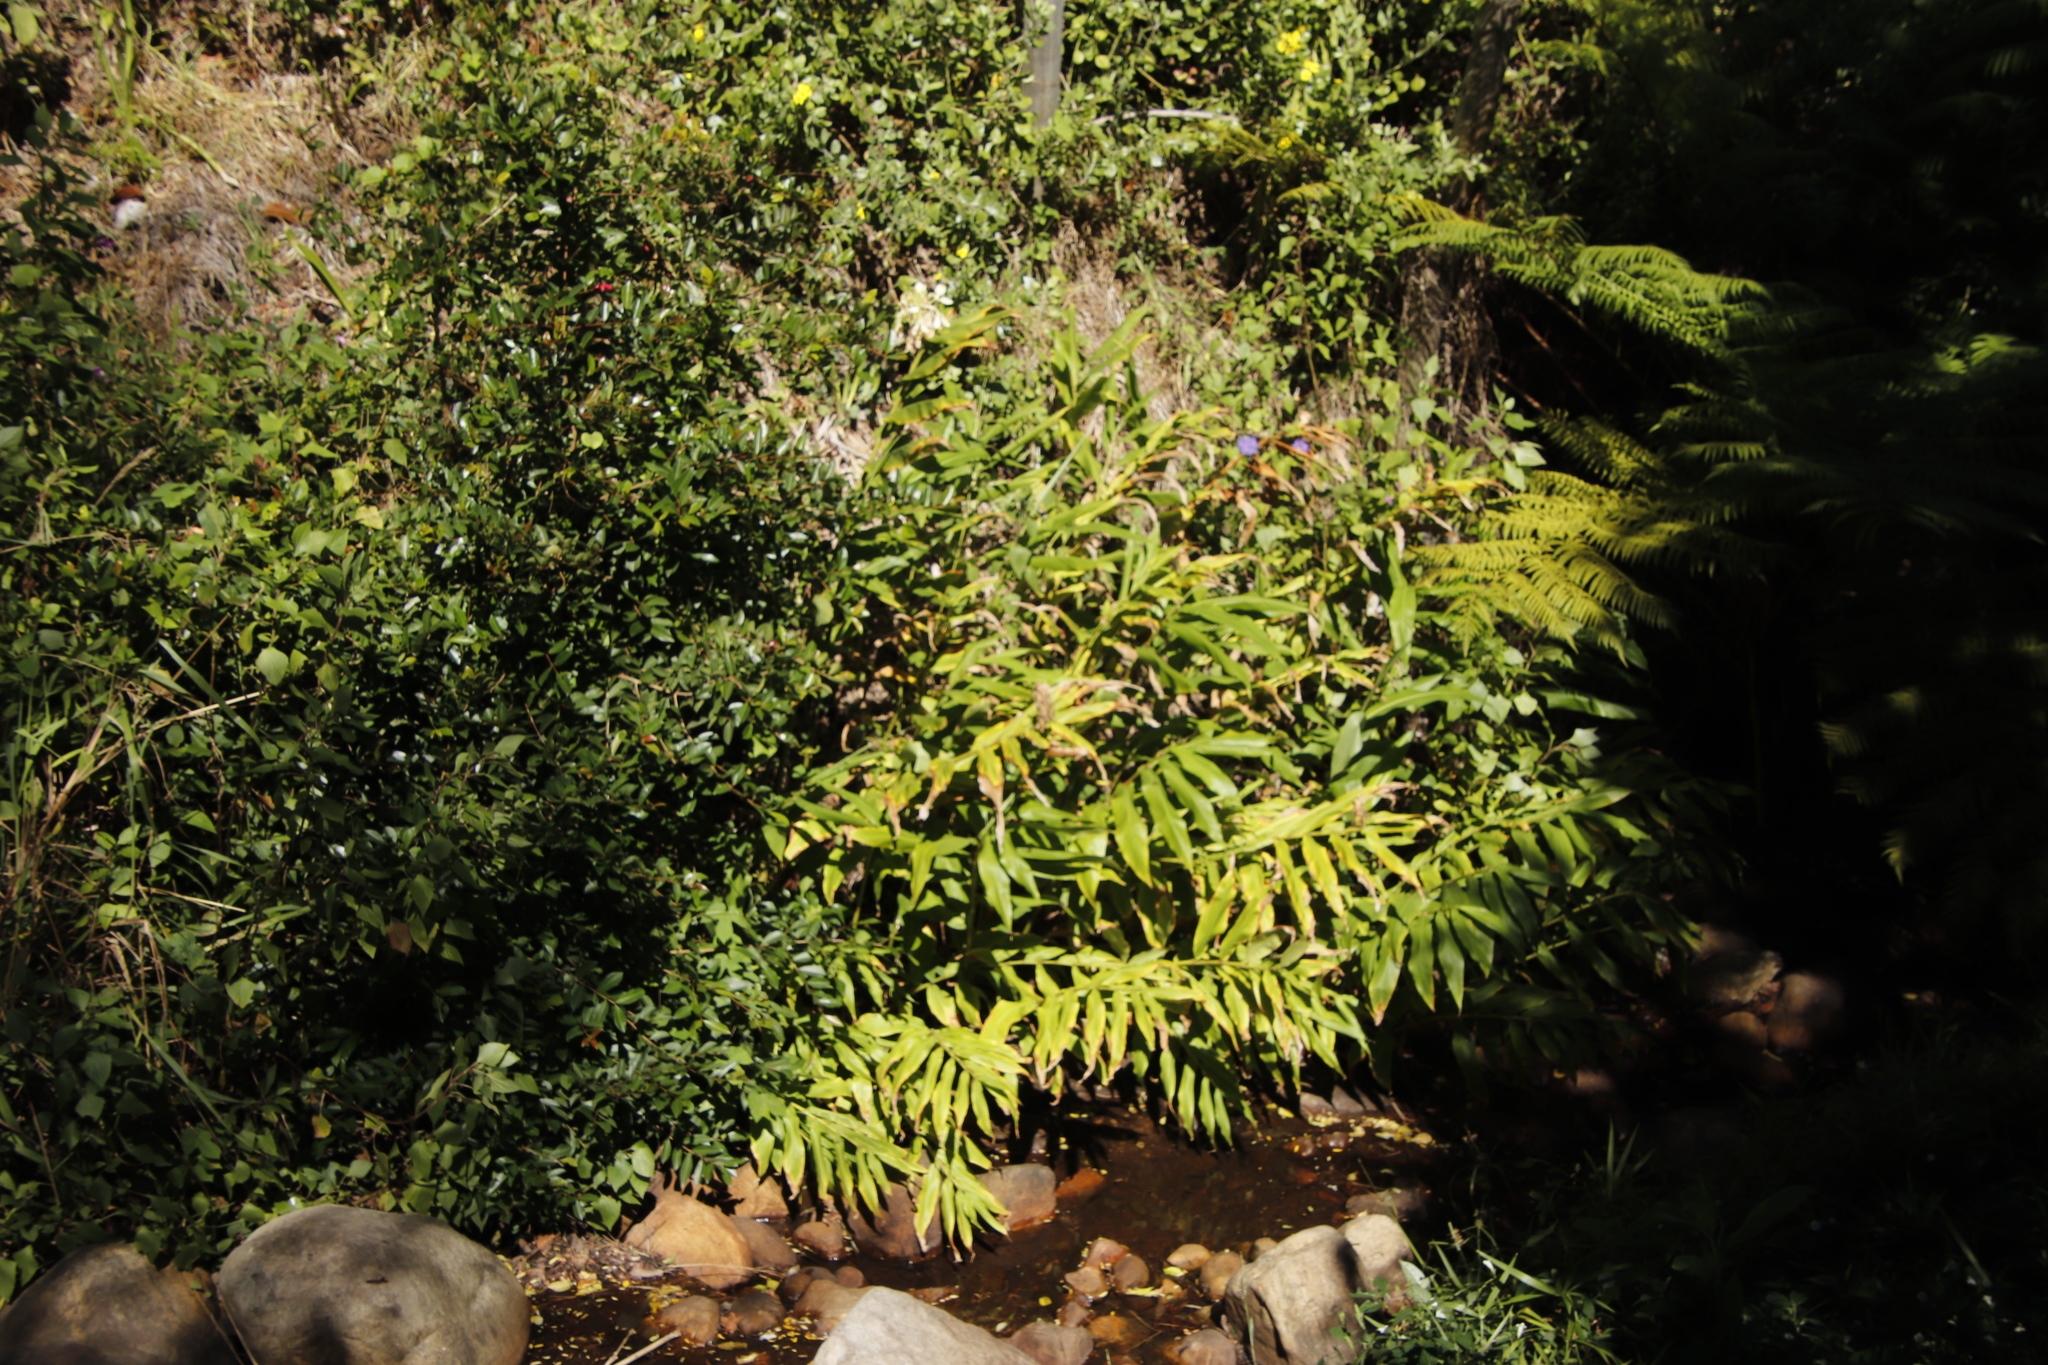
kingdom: Plantae
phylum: Tracheophyta
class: Liliopsida
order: Zingiberales
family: Zingiberaceae
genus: Hedychium
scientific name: Hedychium flavescens
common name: Yellow ginger
